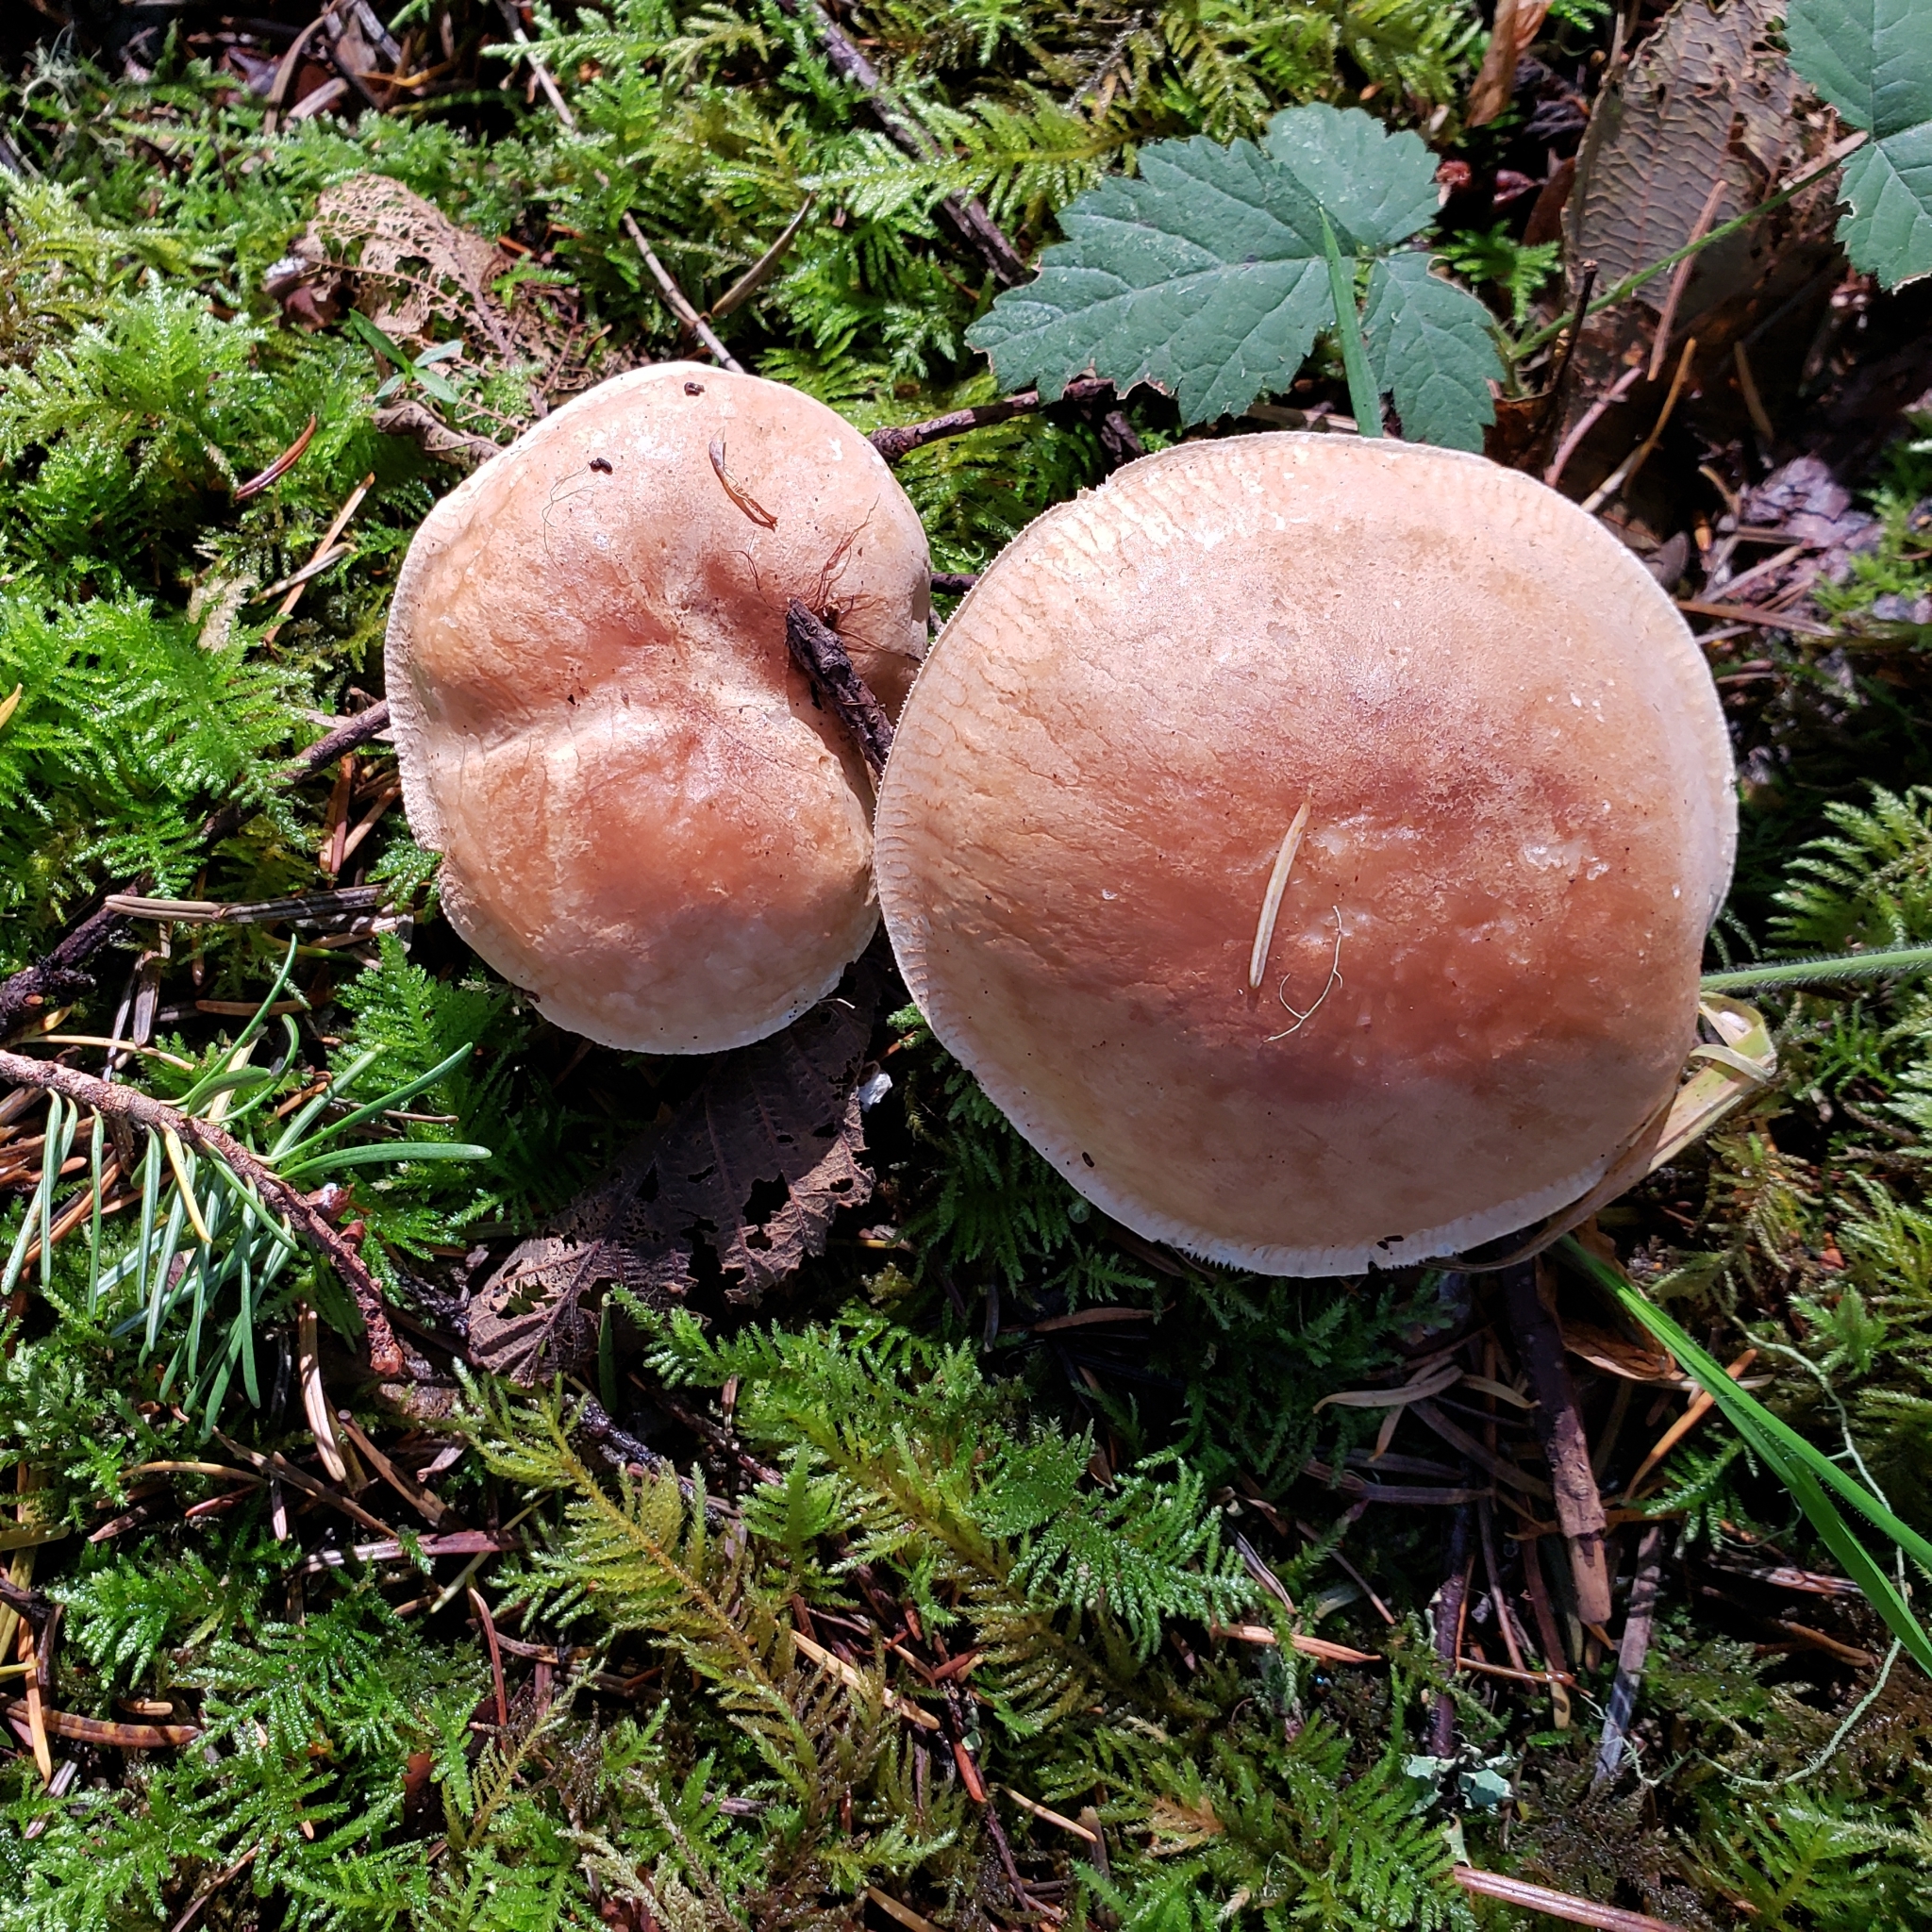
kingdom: Fungi
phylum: Basidiomycota
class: Agaricomycetes
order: Agaricales
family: Tricholomataceae
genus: Leucopaxillus
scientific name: Leucopaxillus gentianeus
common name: Bitter funnel
